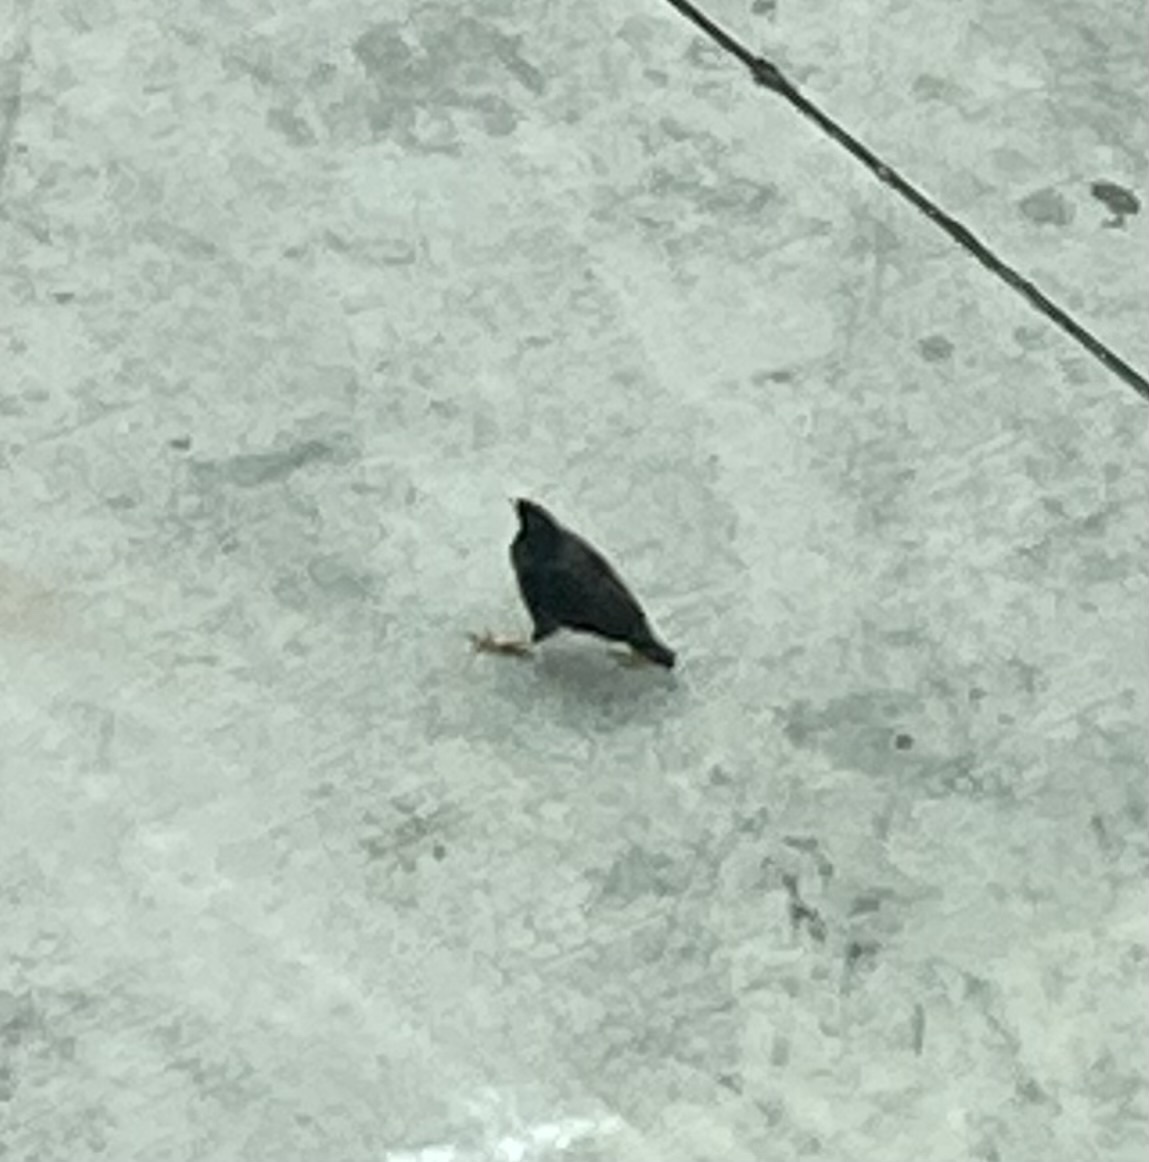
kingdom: Animalia
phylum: Chordata
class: Aves
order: Passeriformes
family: Sturnidae
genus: Acridotheres
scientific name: Acridotheres javanicus
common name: Javan myna
